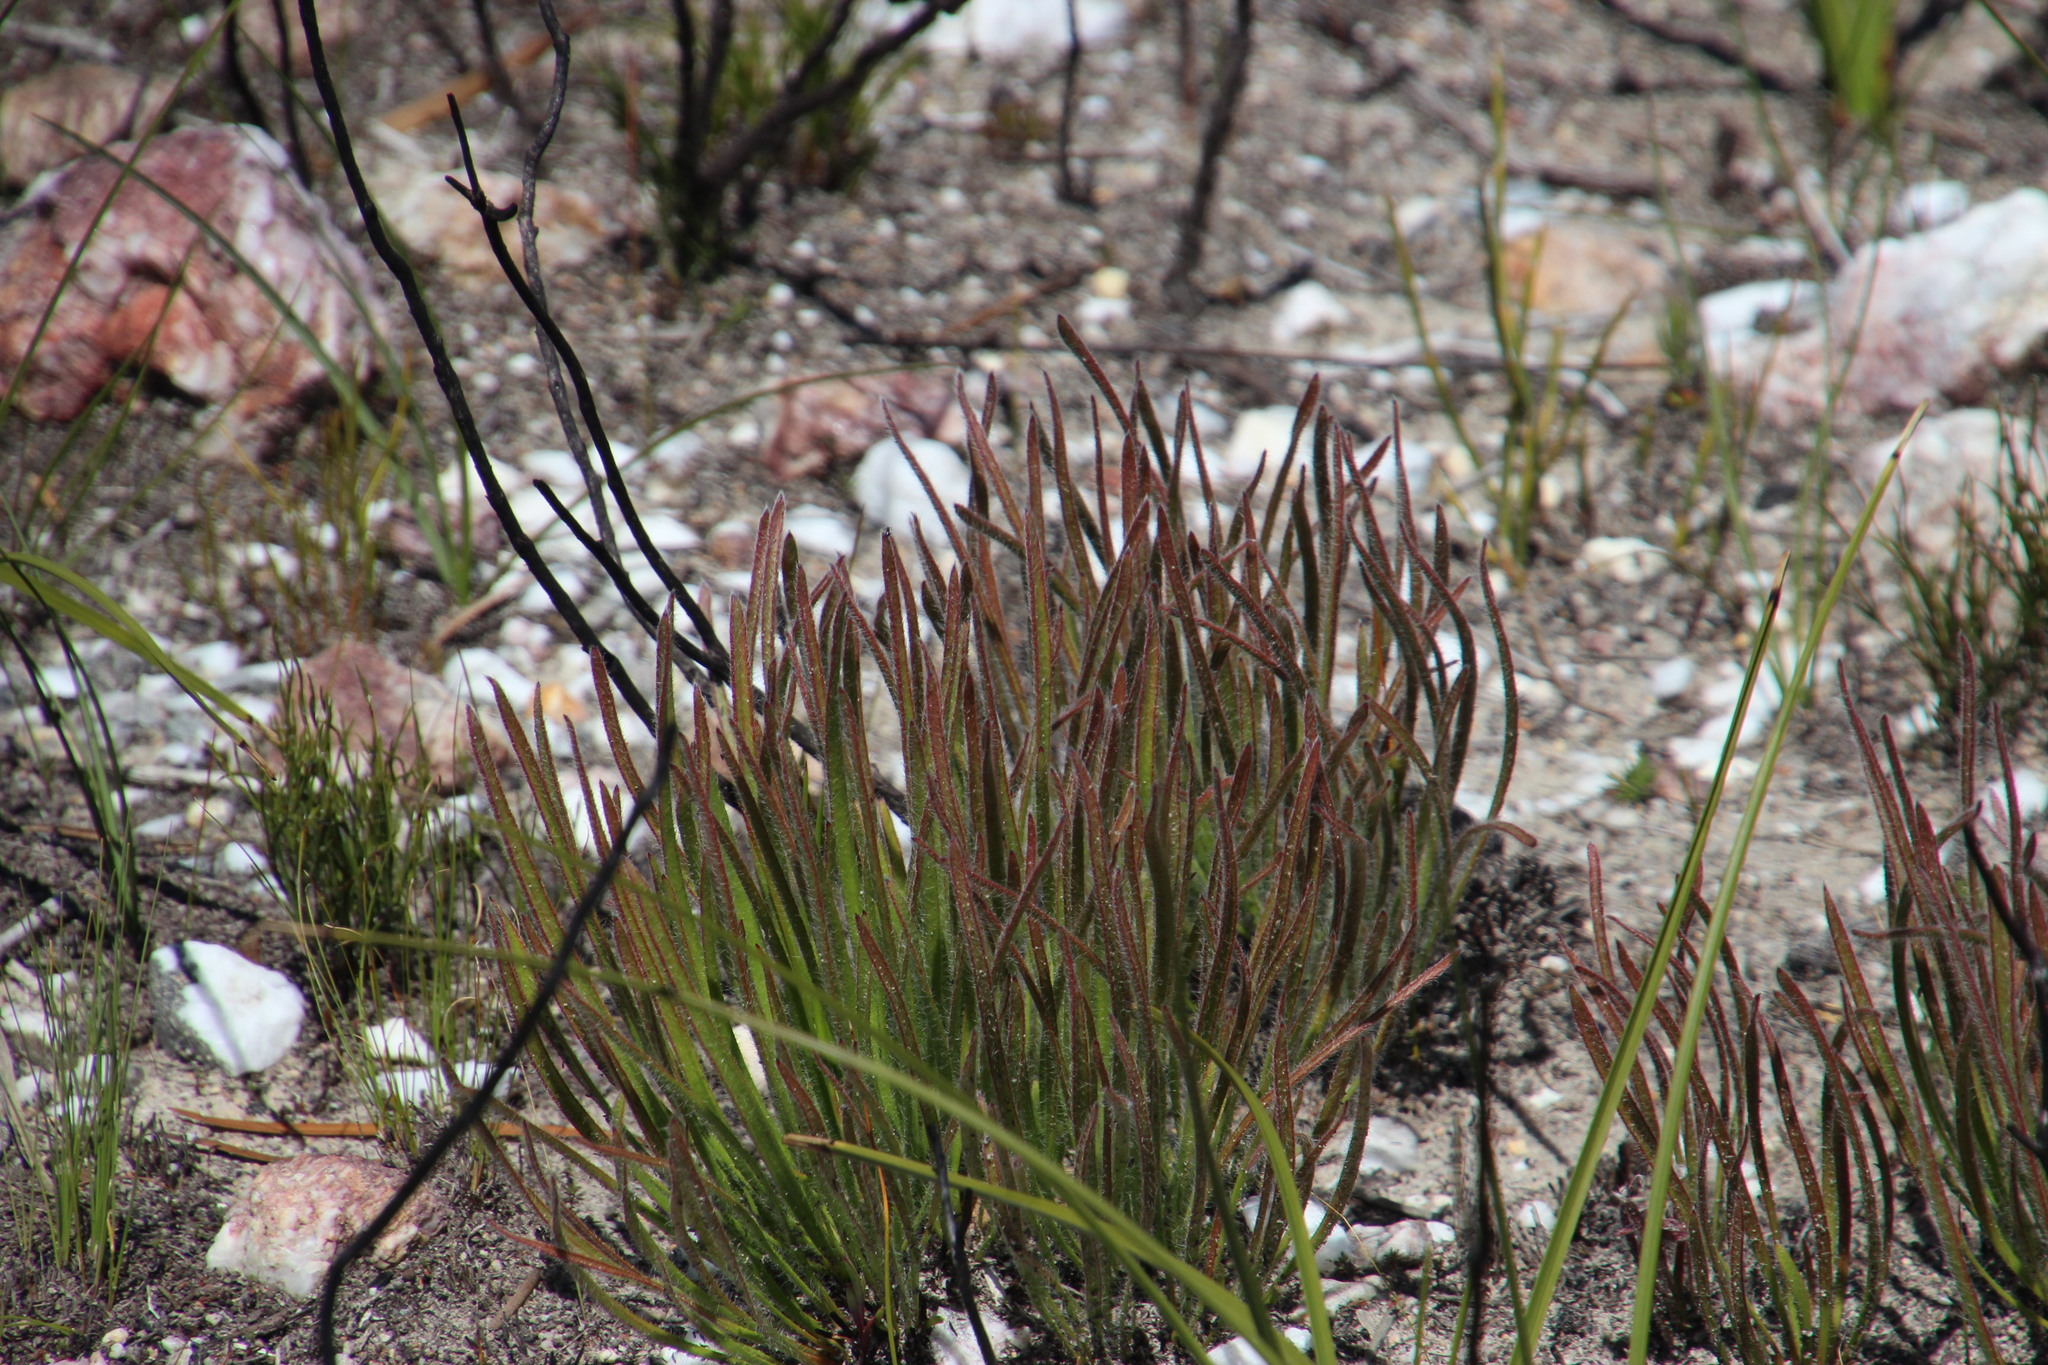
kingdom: Plantae
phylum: Tracheophyta
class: Magnoliopsida
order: Proteales
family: Proteaceae
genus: Protea
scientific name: Protea scabra
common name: Sandpaper-leaf sugarbush
